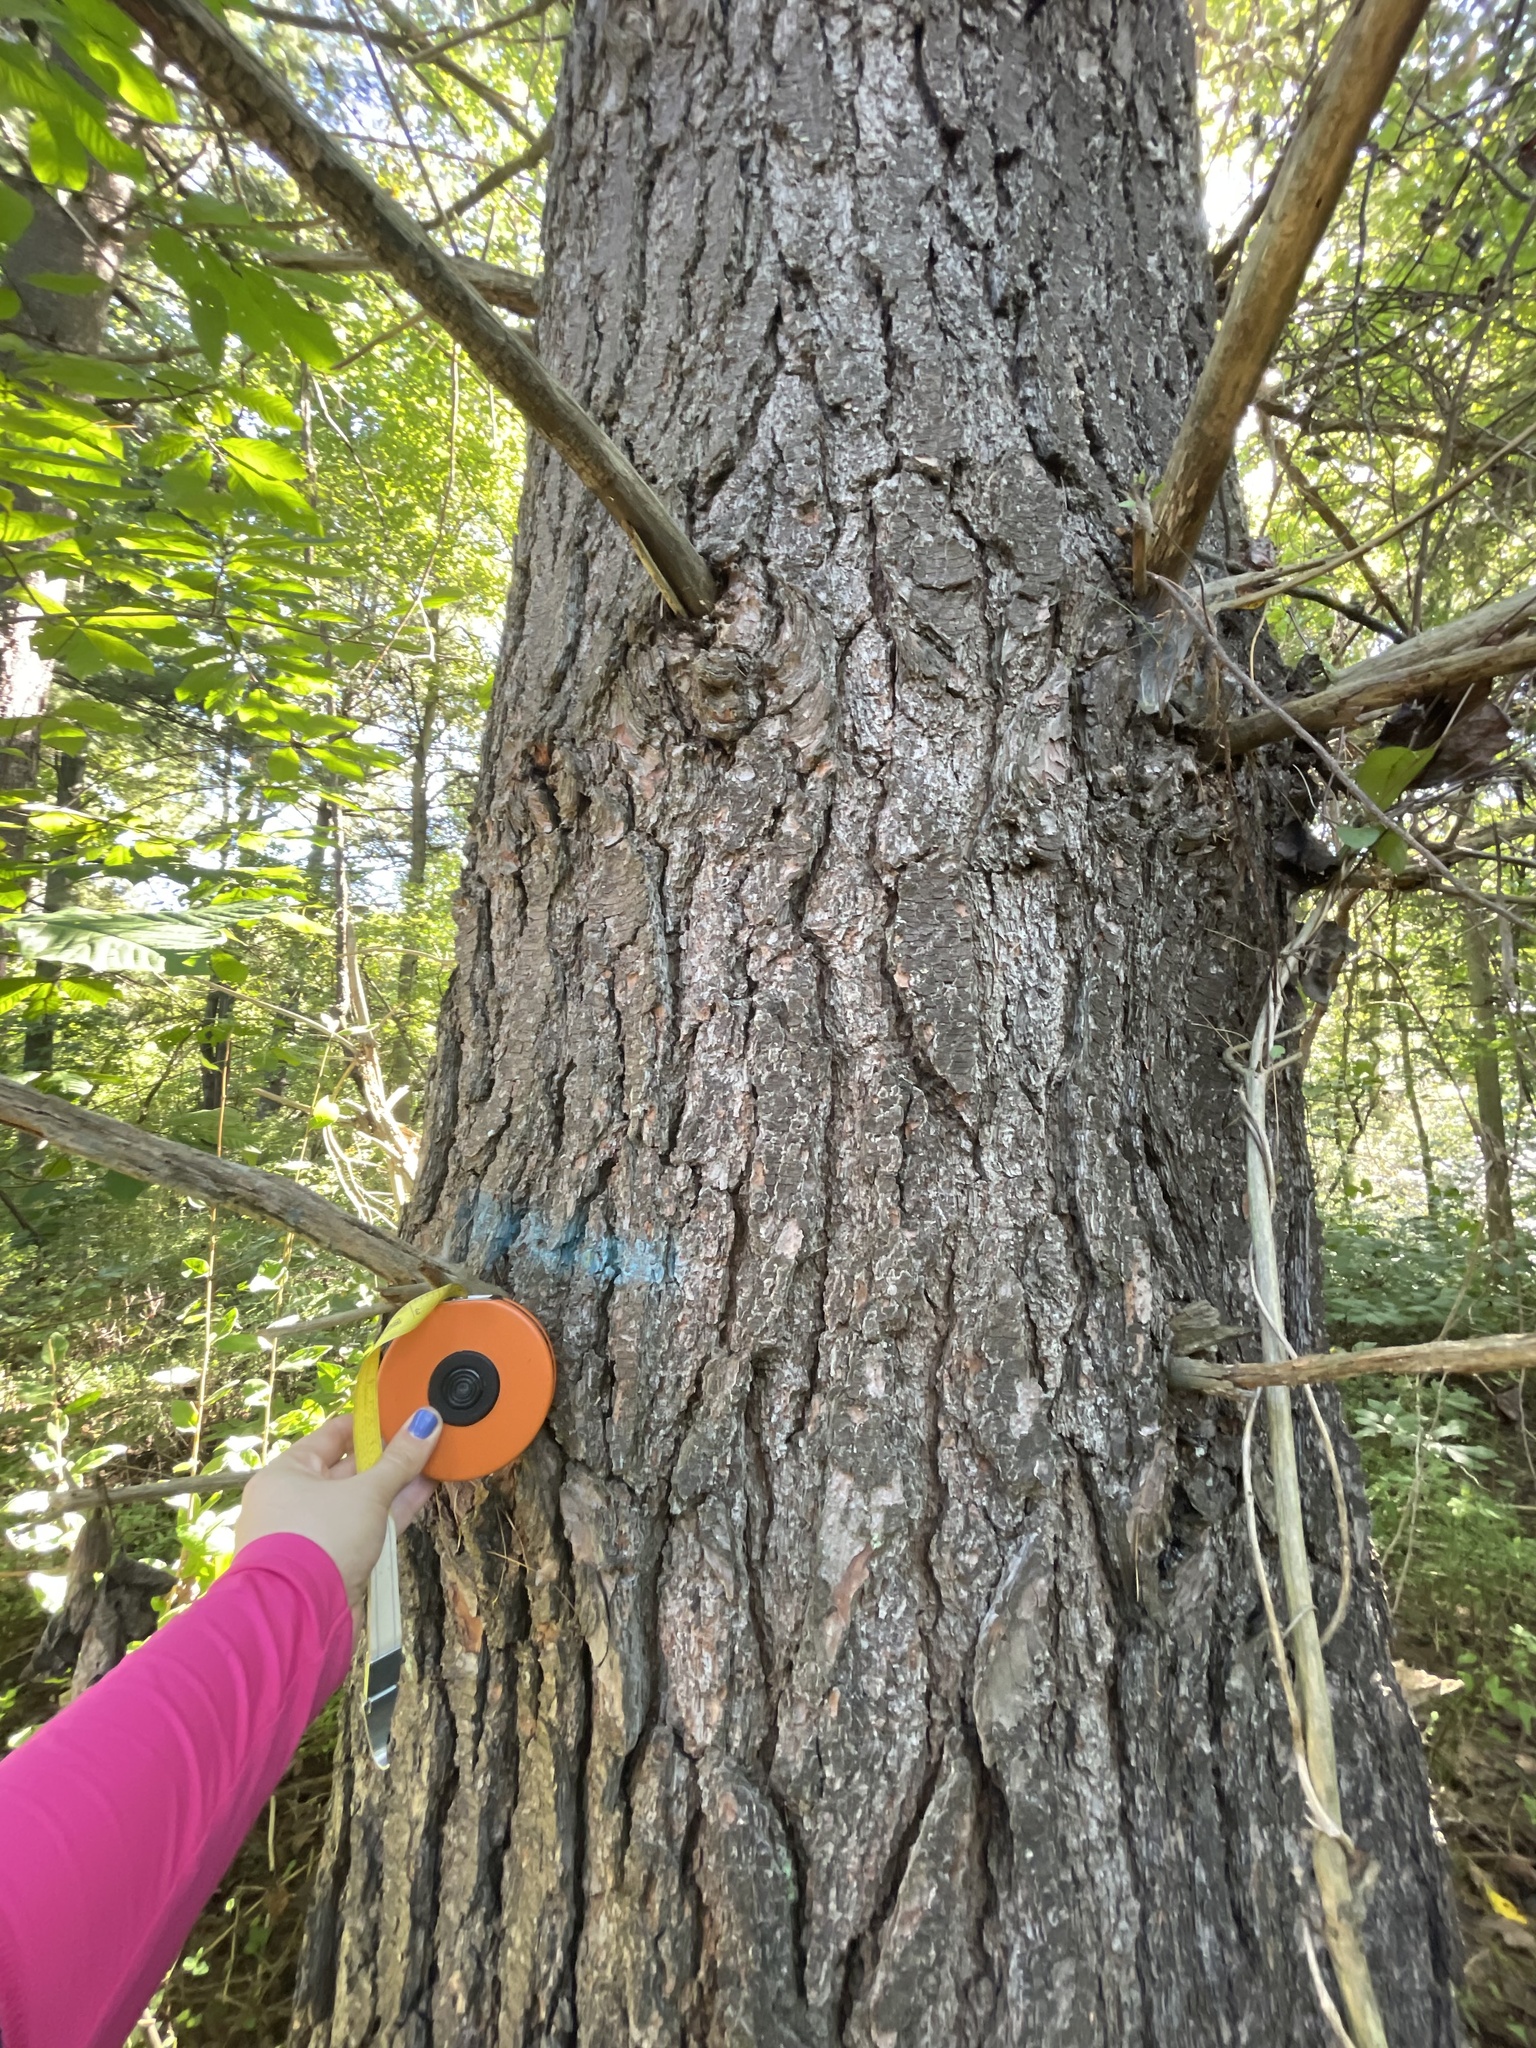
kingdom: Plantae
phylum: Tracheophyta
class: Pinopsida
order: Pinales
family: Pinaceae
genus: Pinus
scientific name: Pinus strobus
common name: Weymouth pine
